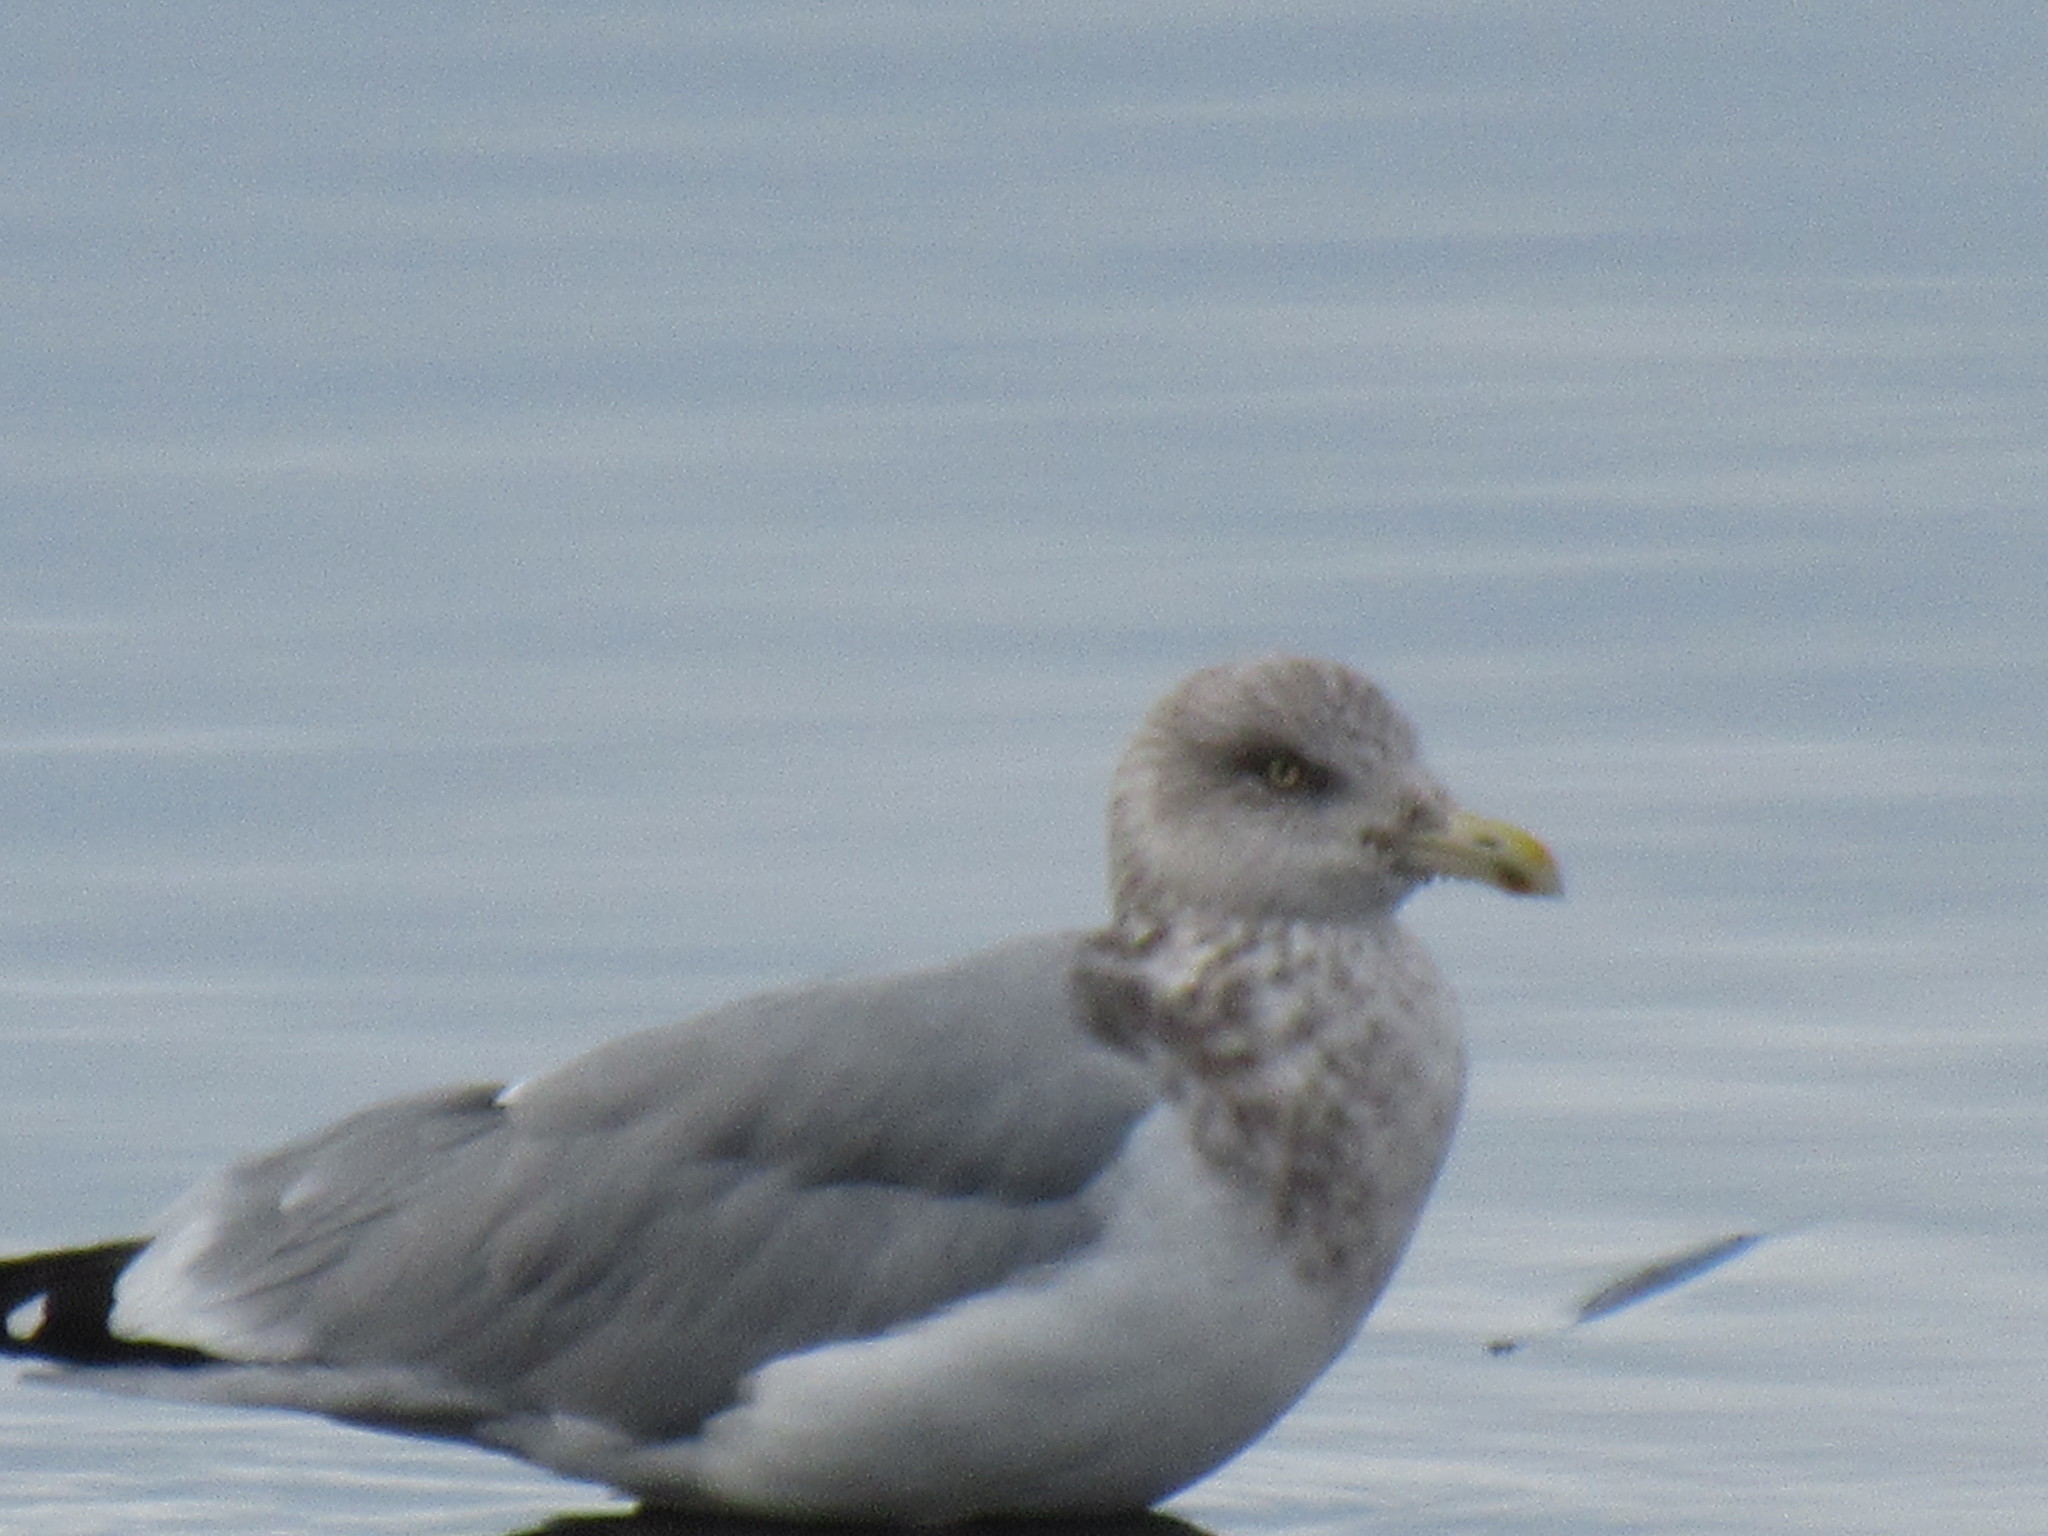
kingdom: Animalia
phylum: Chordata
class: Aves
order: Charadriiformes
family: Laridae
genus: Larus
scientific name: Larus glaucoides
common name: Iceland gull
